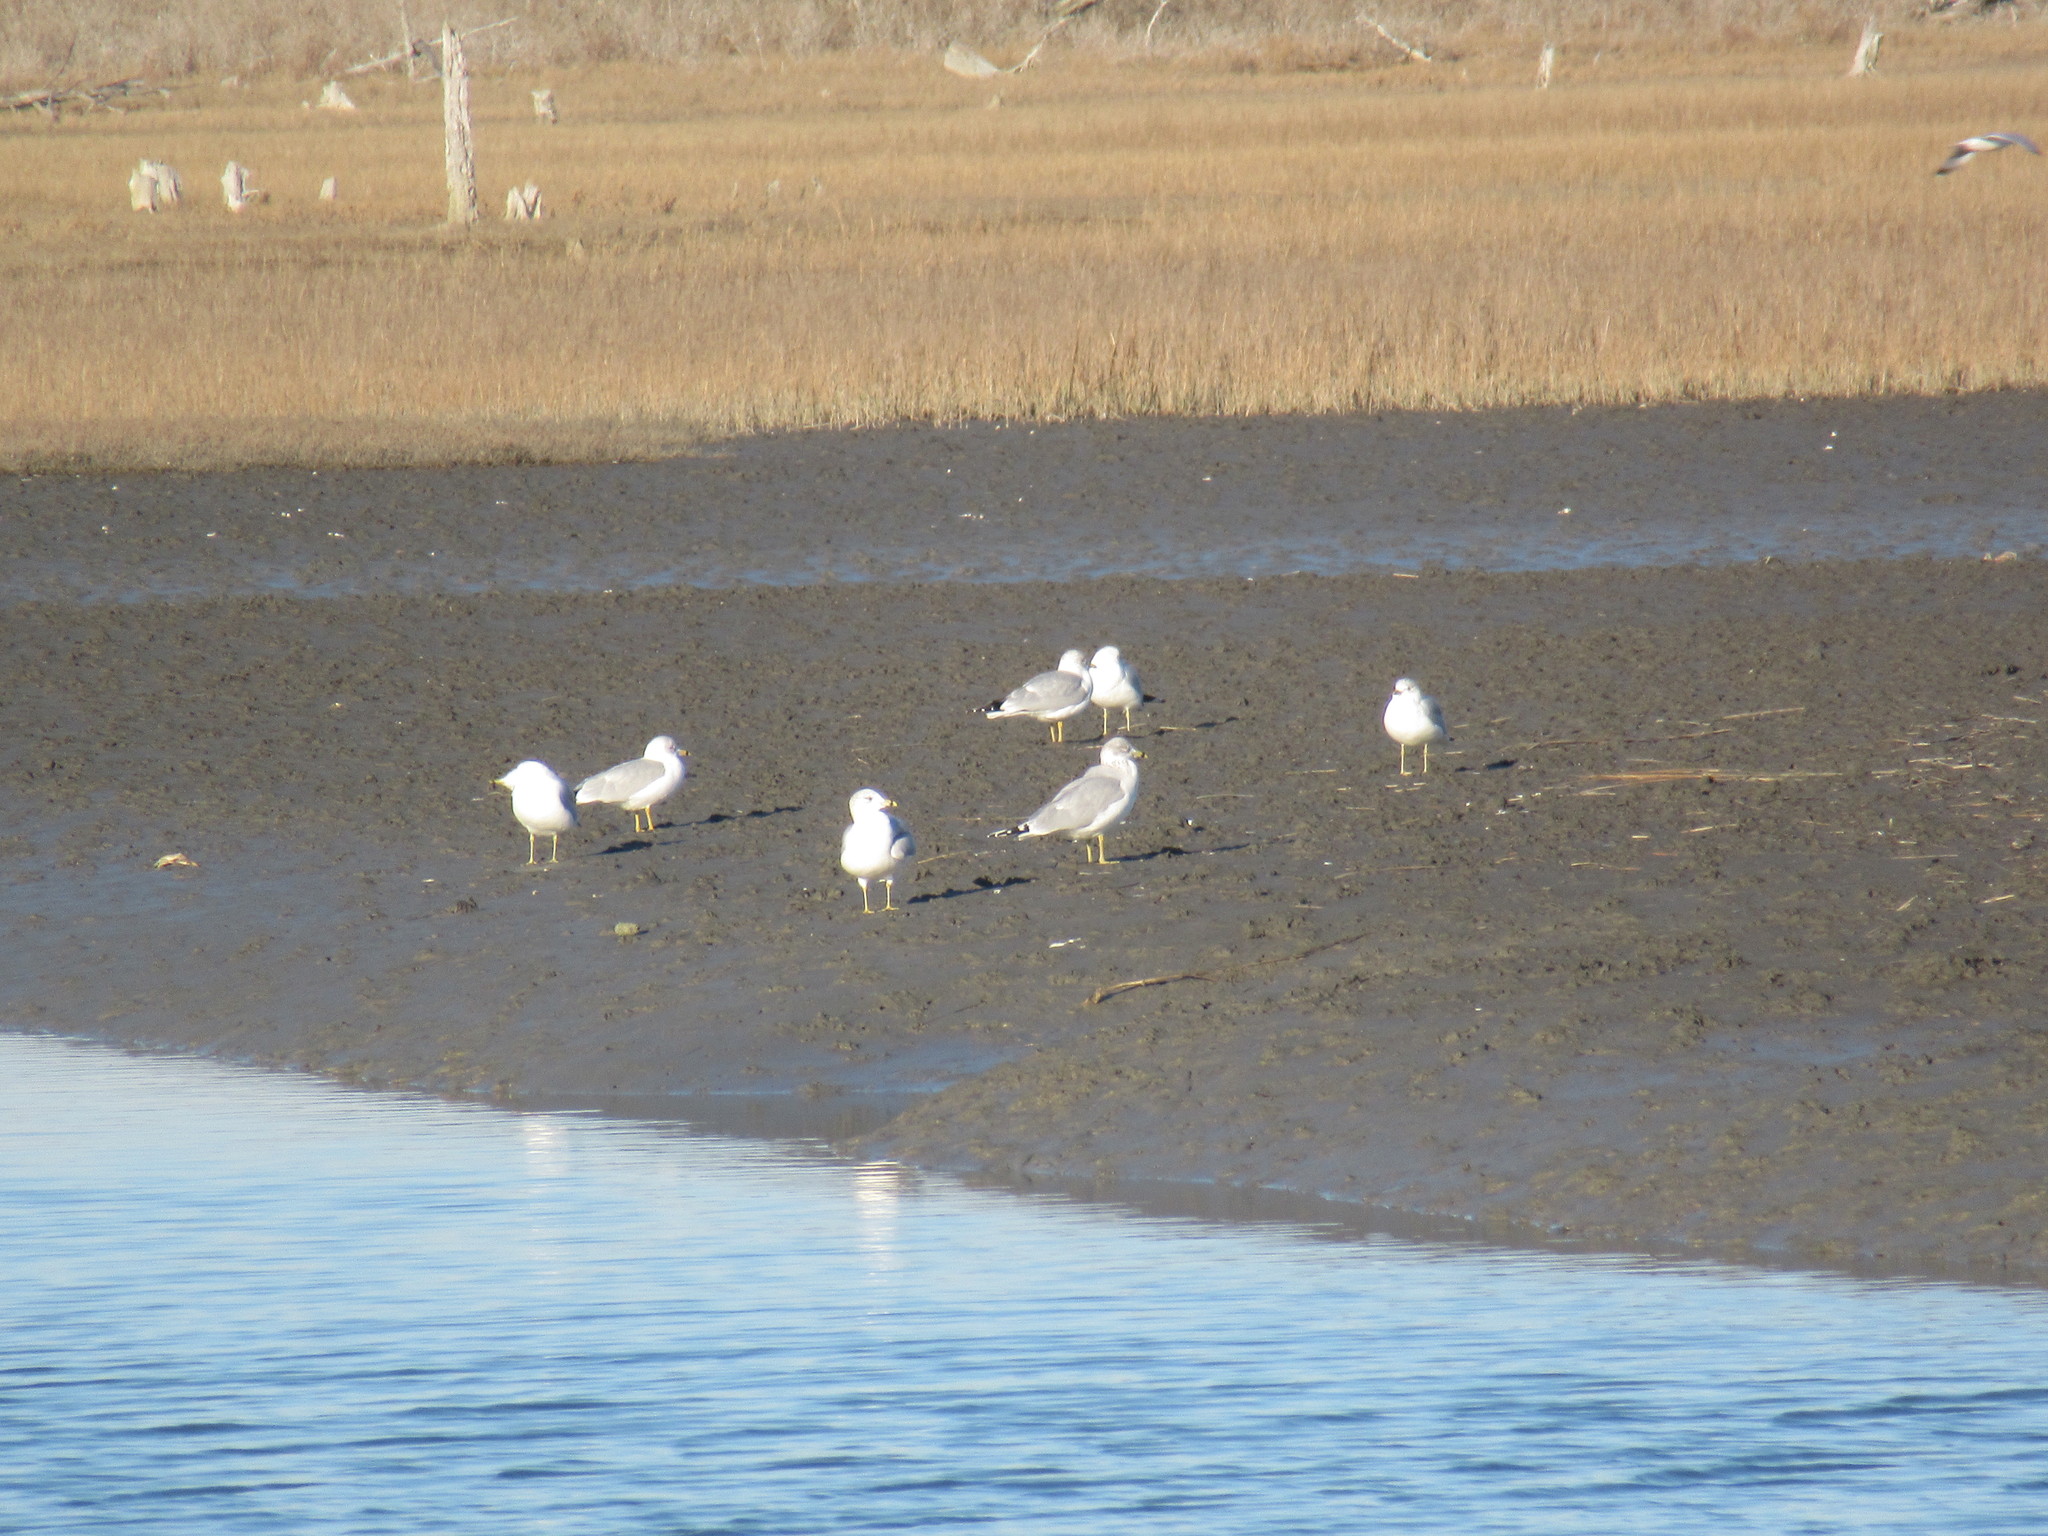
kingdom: Animalia
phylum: Chordata
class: Aves
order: Charadriiformes
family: Laridae
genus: Larus
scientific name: Larus delawarensis
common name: Ring-billed gull
